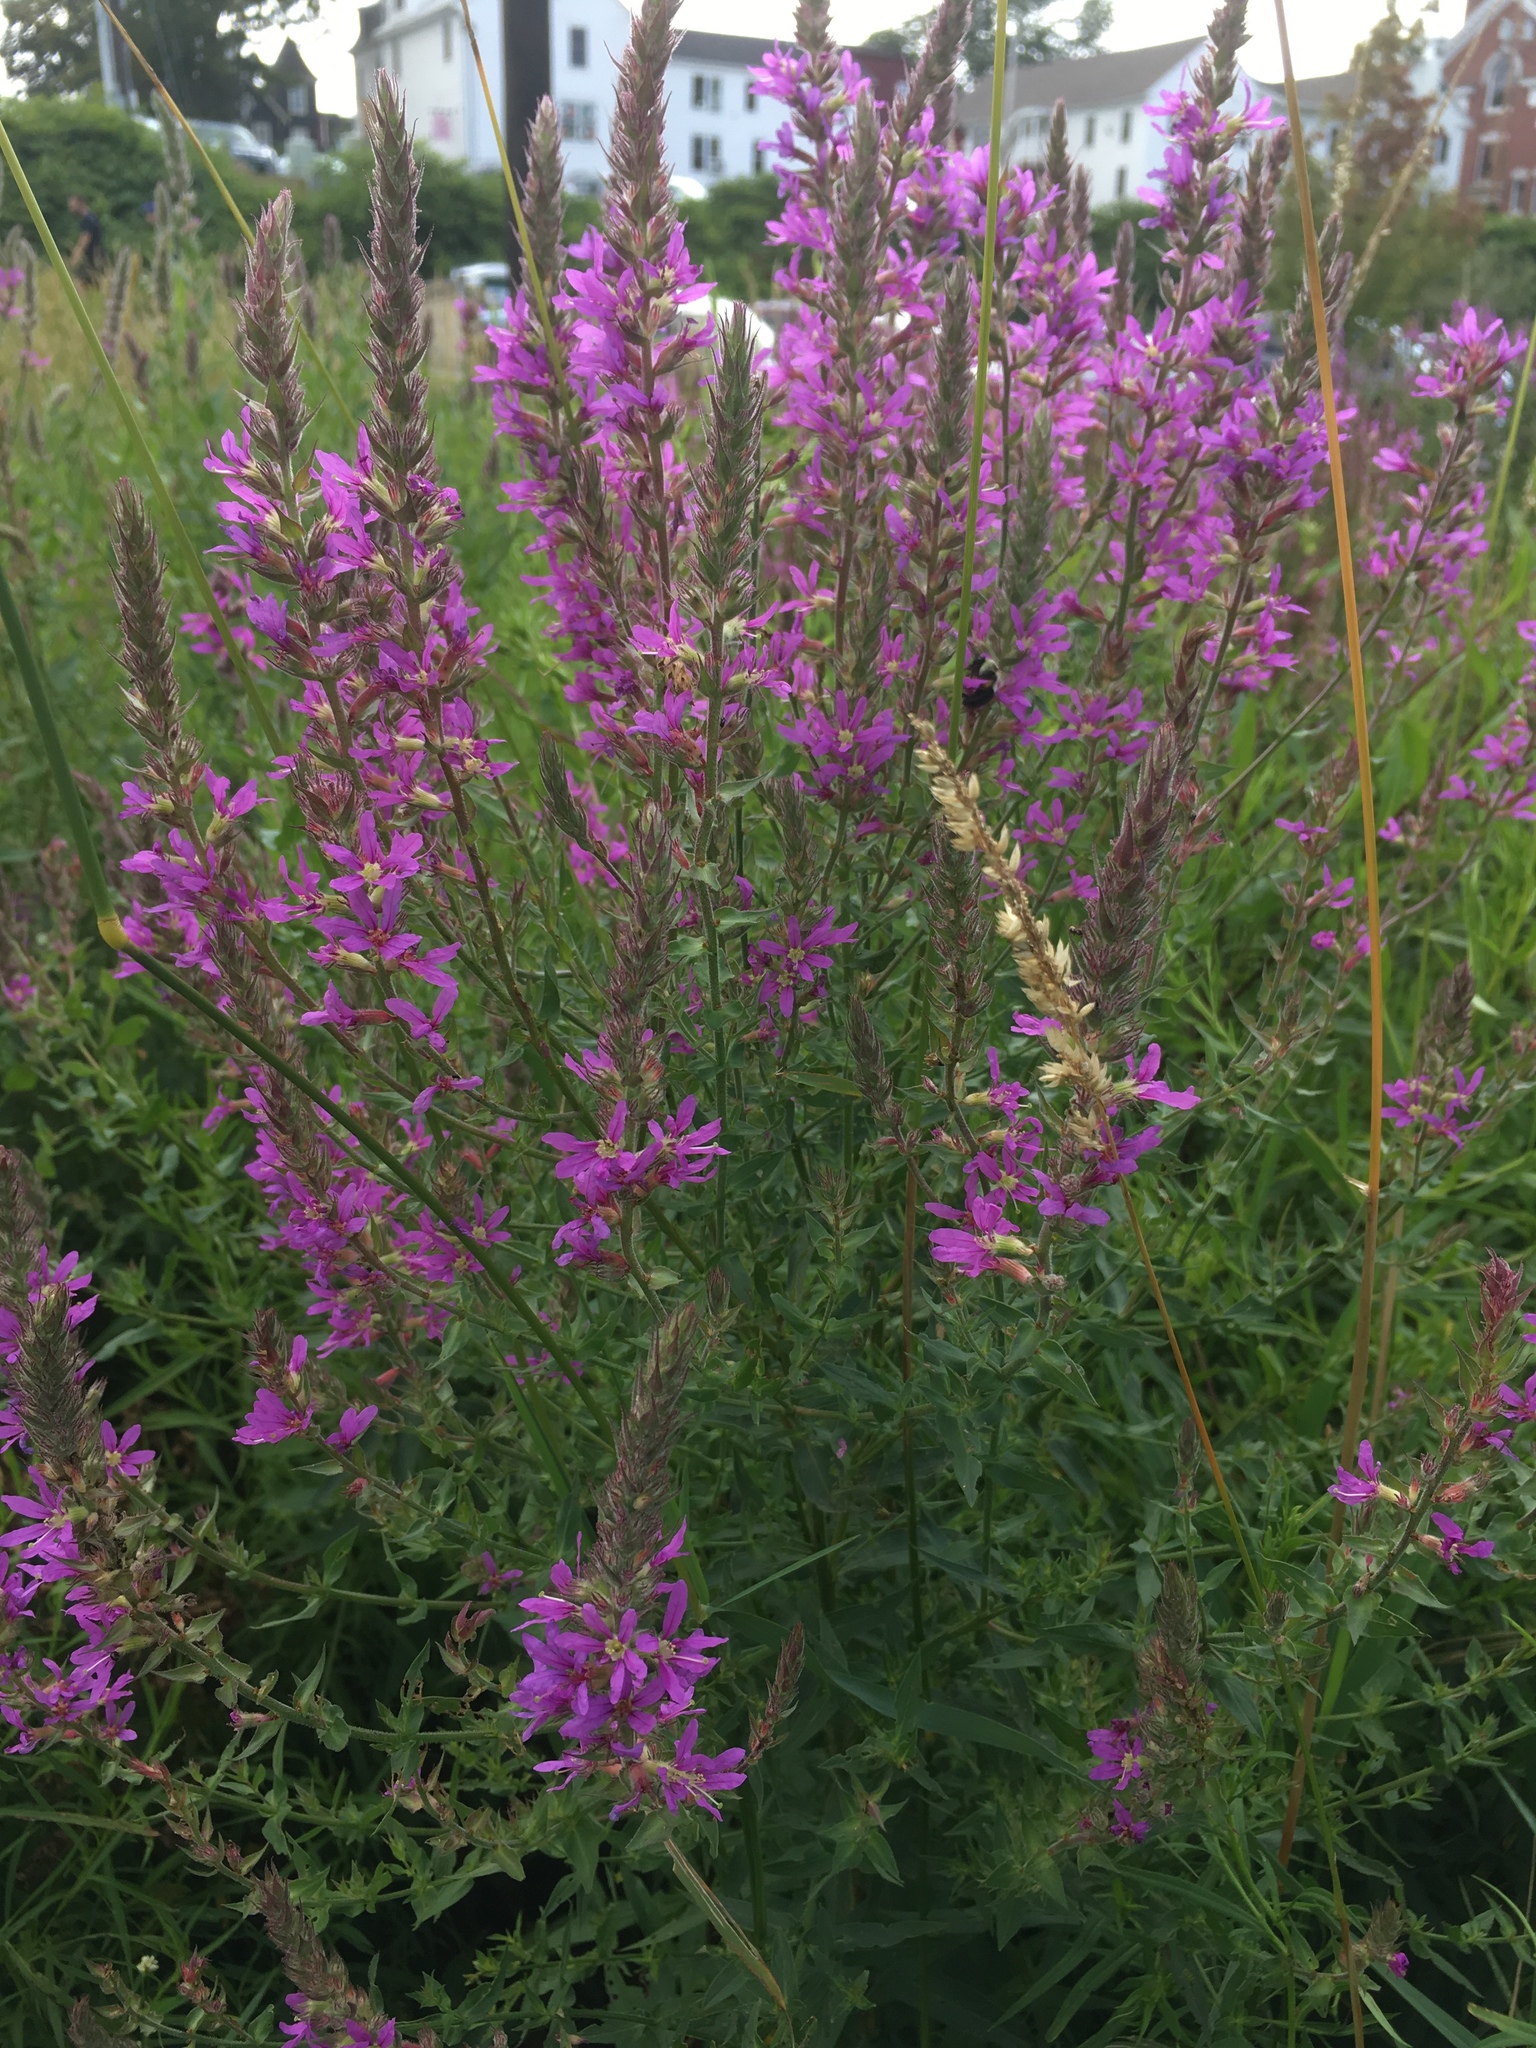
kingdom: Plantae
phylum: Tracheophyta
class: Magnoliopsida
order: Myrtales
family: Lythraceae
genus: Lythrum
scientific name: Lythrum salicaria
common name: Purple loosestrife
